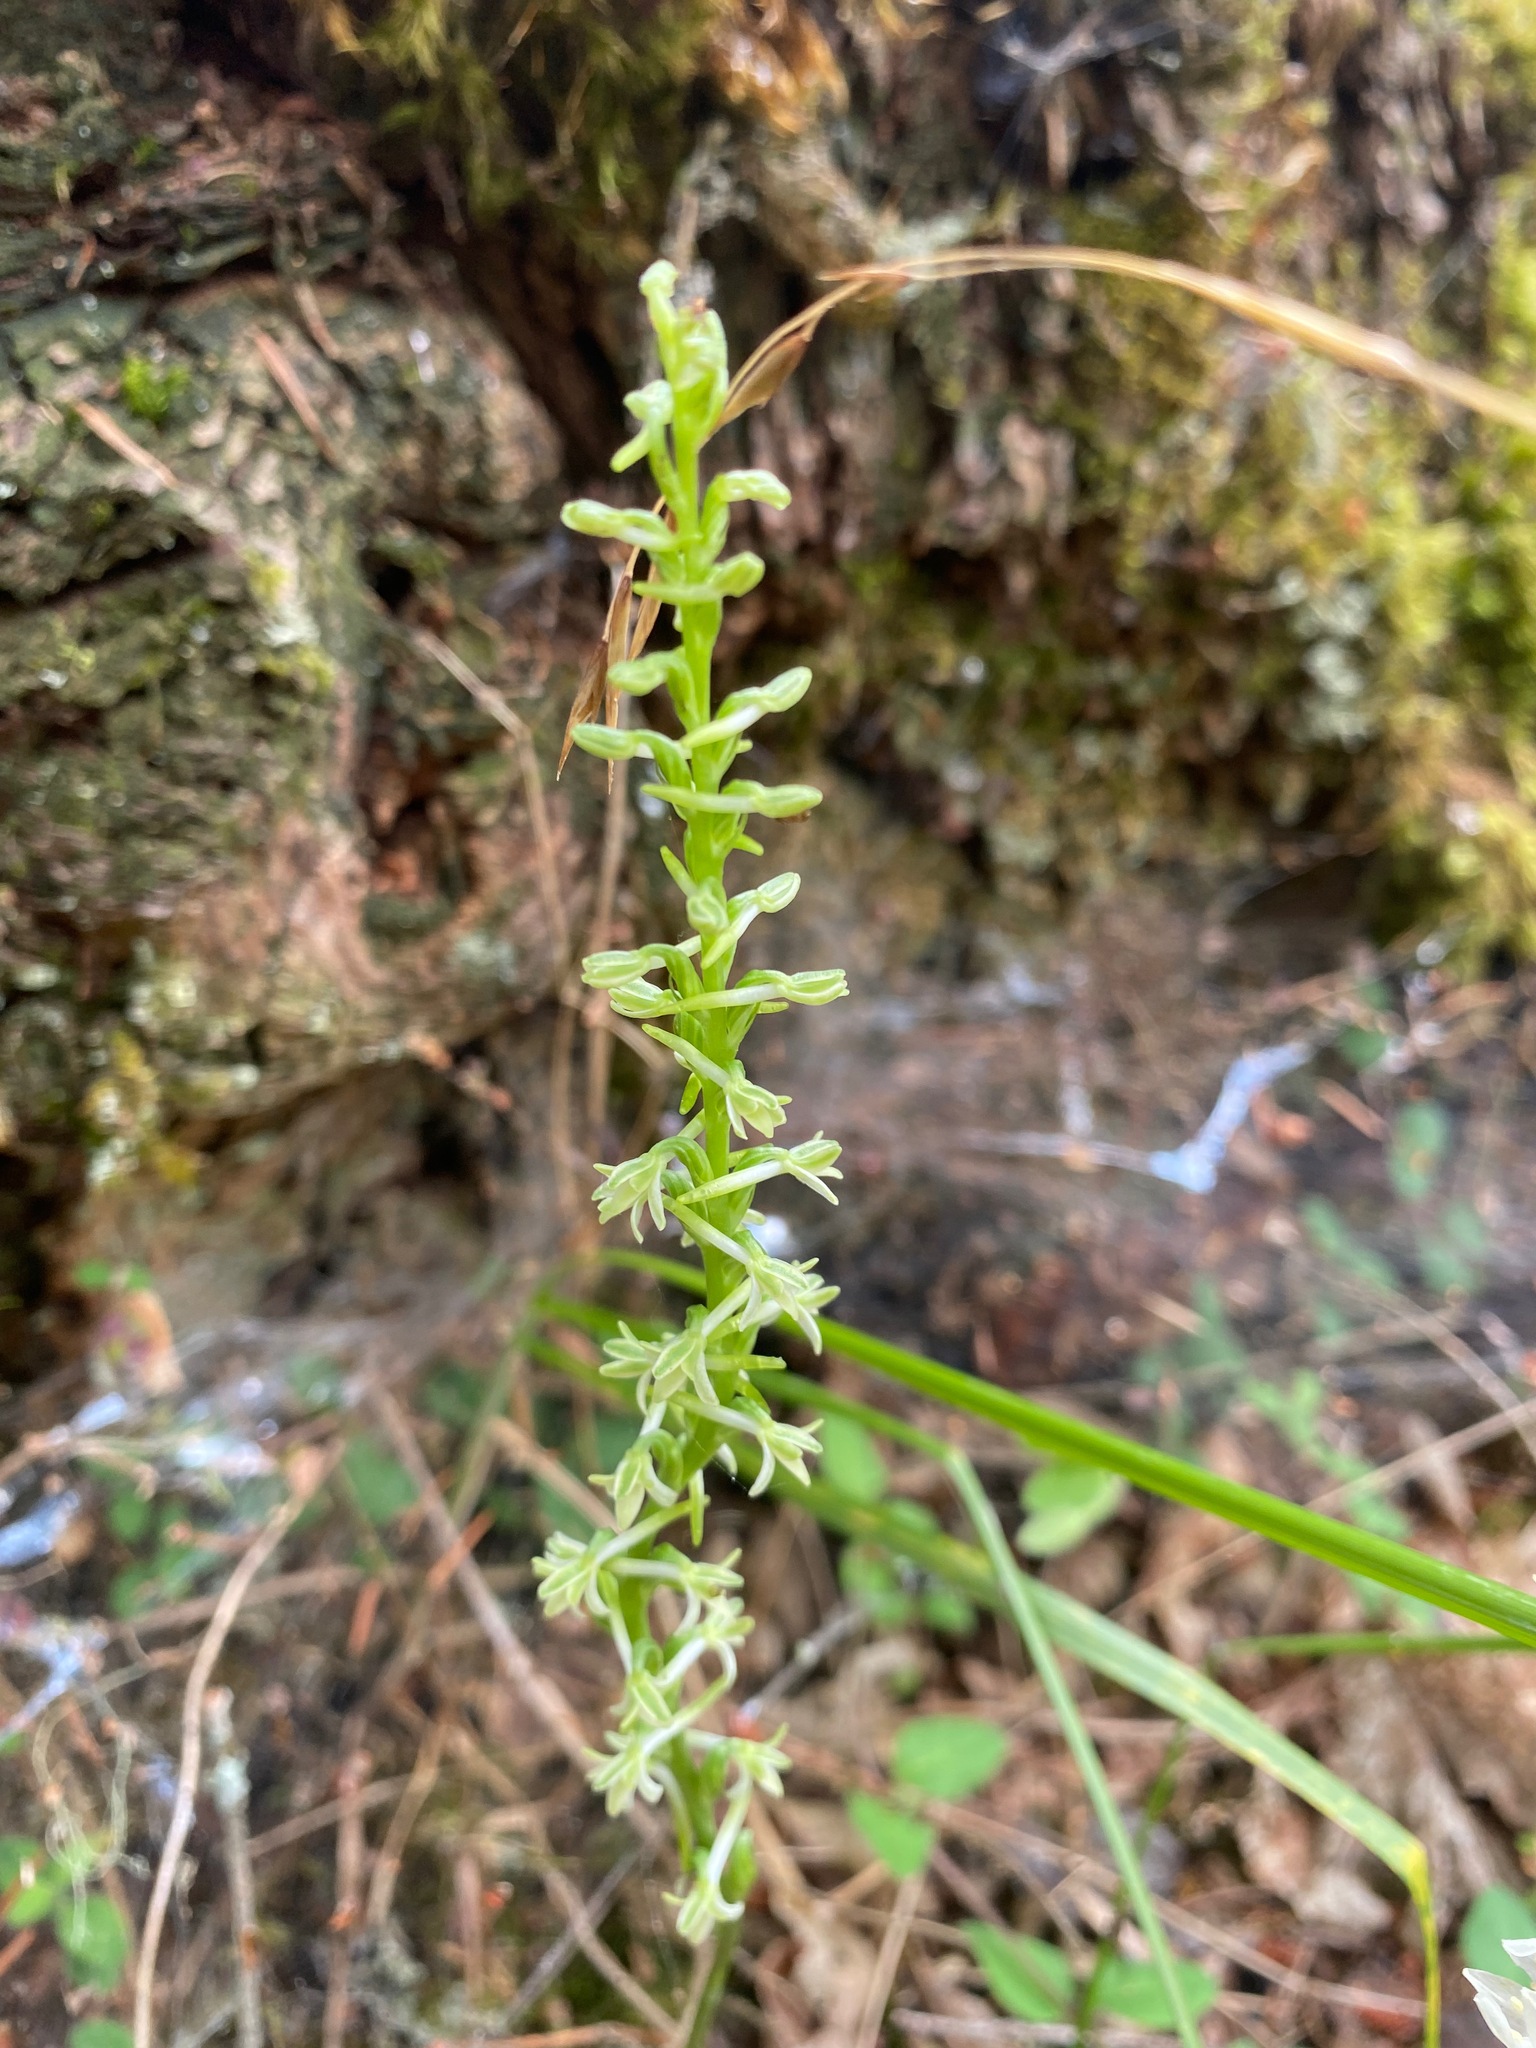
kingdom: Plantae
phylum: Tracheophyta
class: Liliopsida
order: Asparagales
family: Orchidaceae
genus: Platanthera
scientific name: Platanthera transversa
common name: Royal rein orchid
